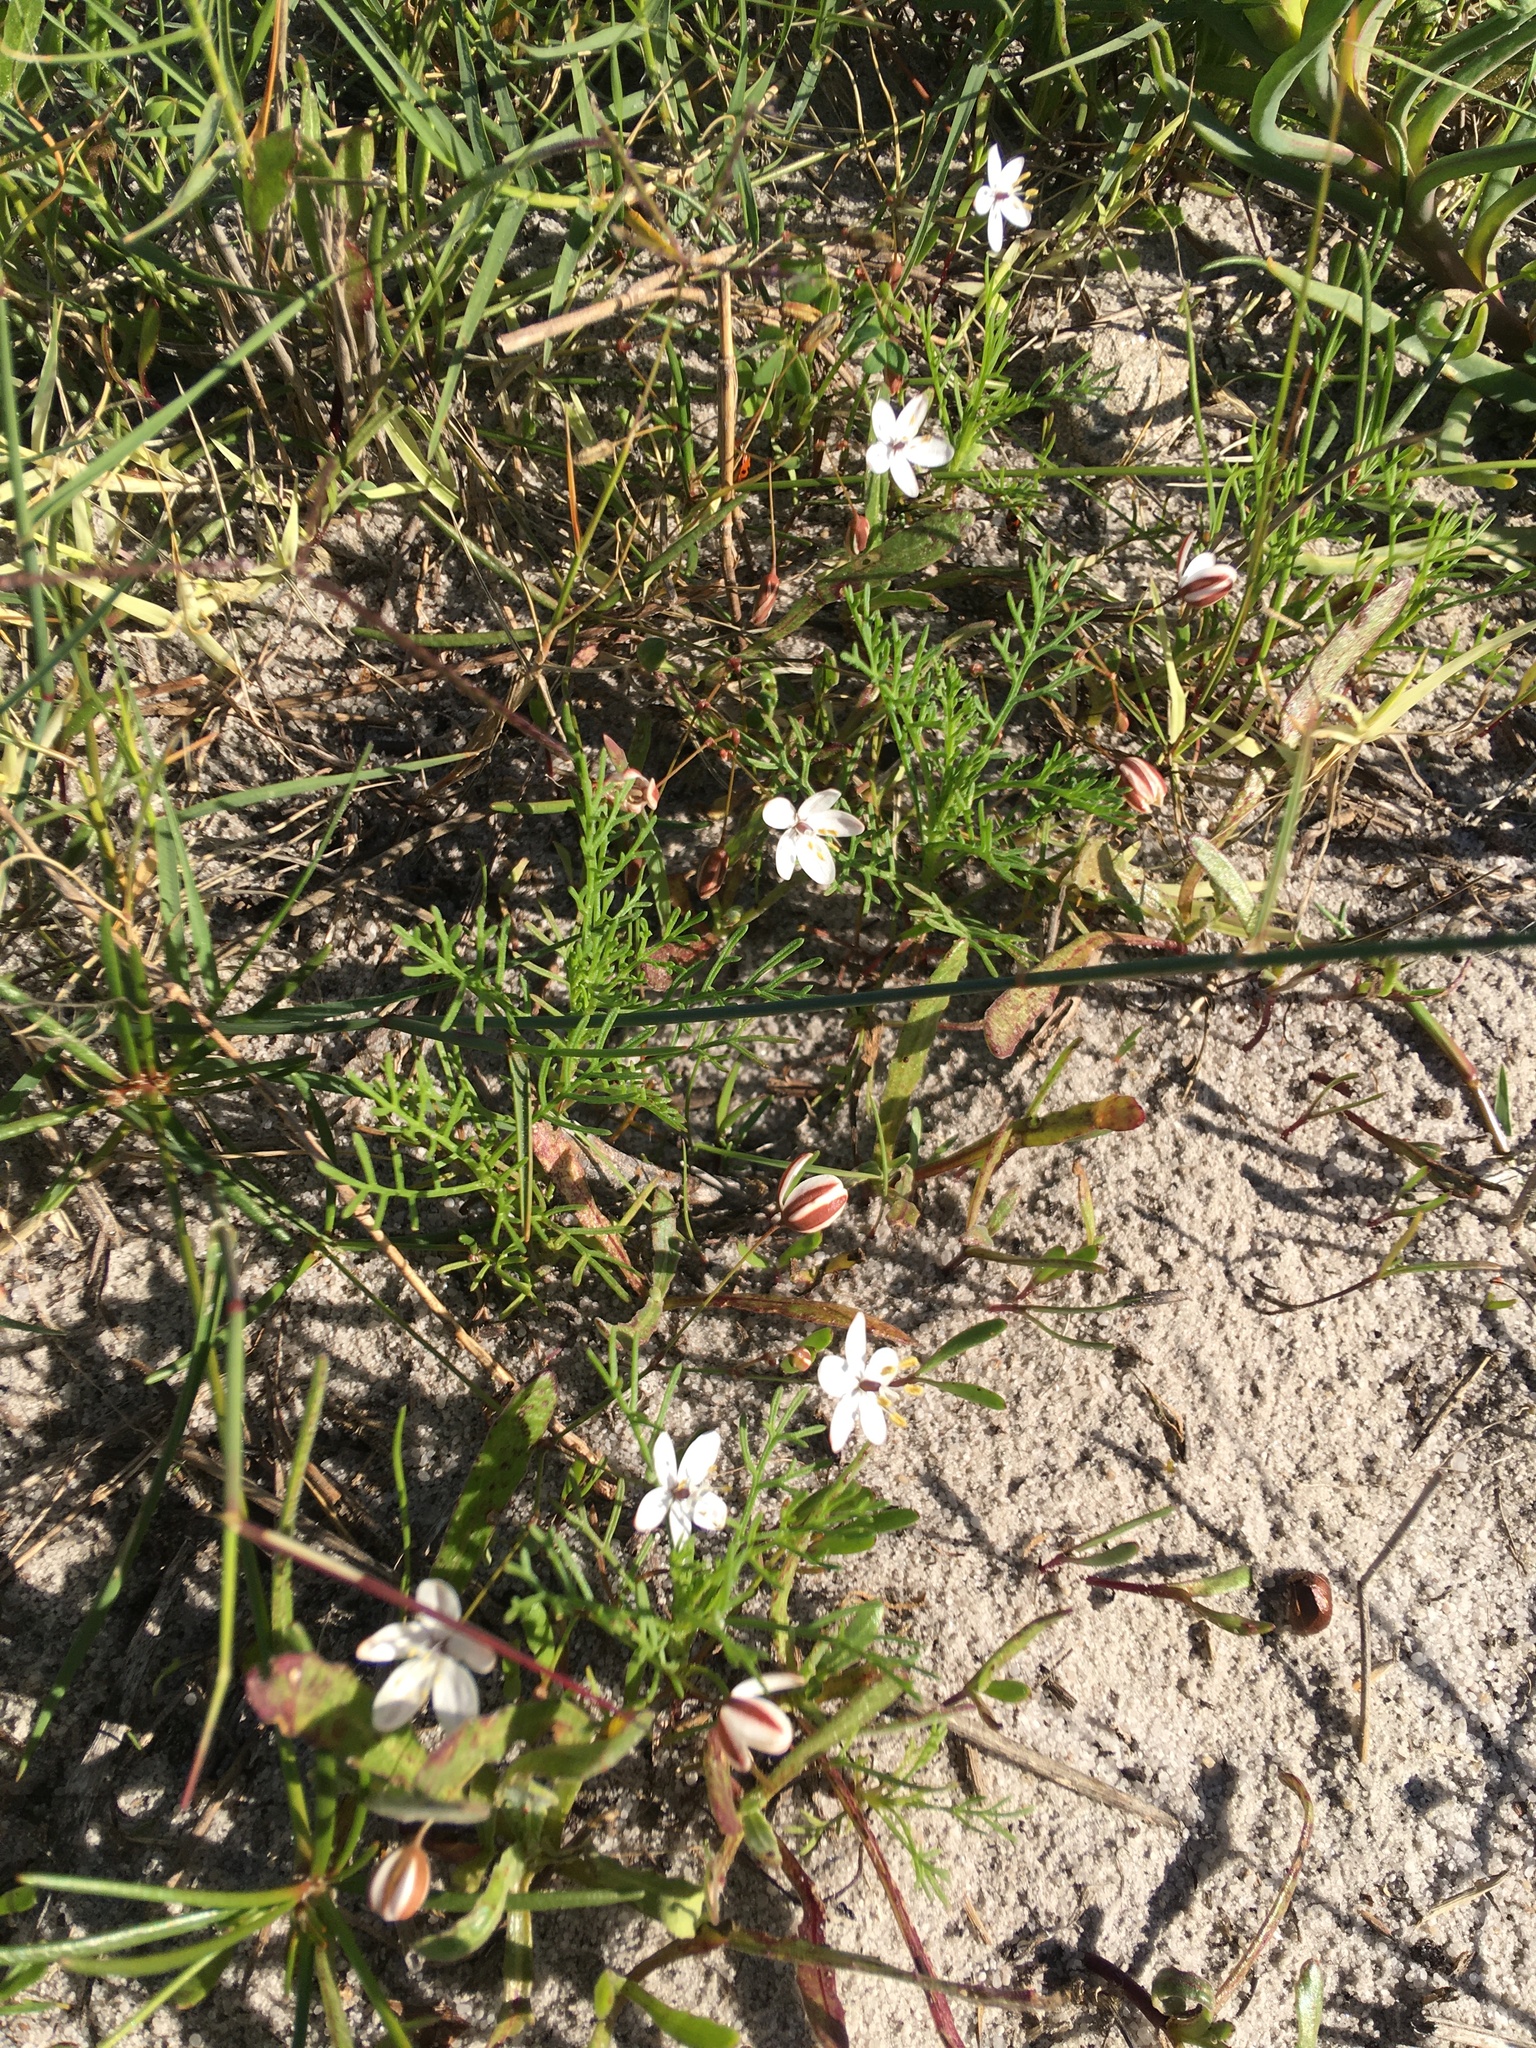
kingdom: Plantae
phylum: Tracheophyta
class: Magnoliopsida
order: Caryophyllales
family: Molluginaceae
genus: Pharnaceum
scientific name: Pharnaceum lineare
